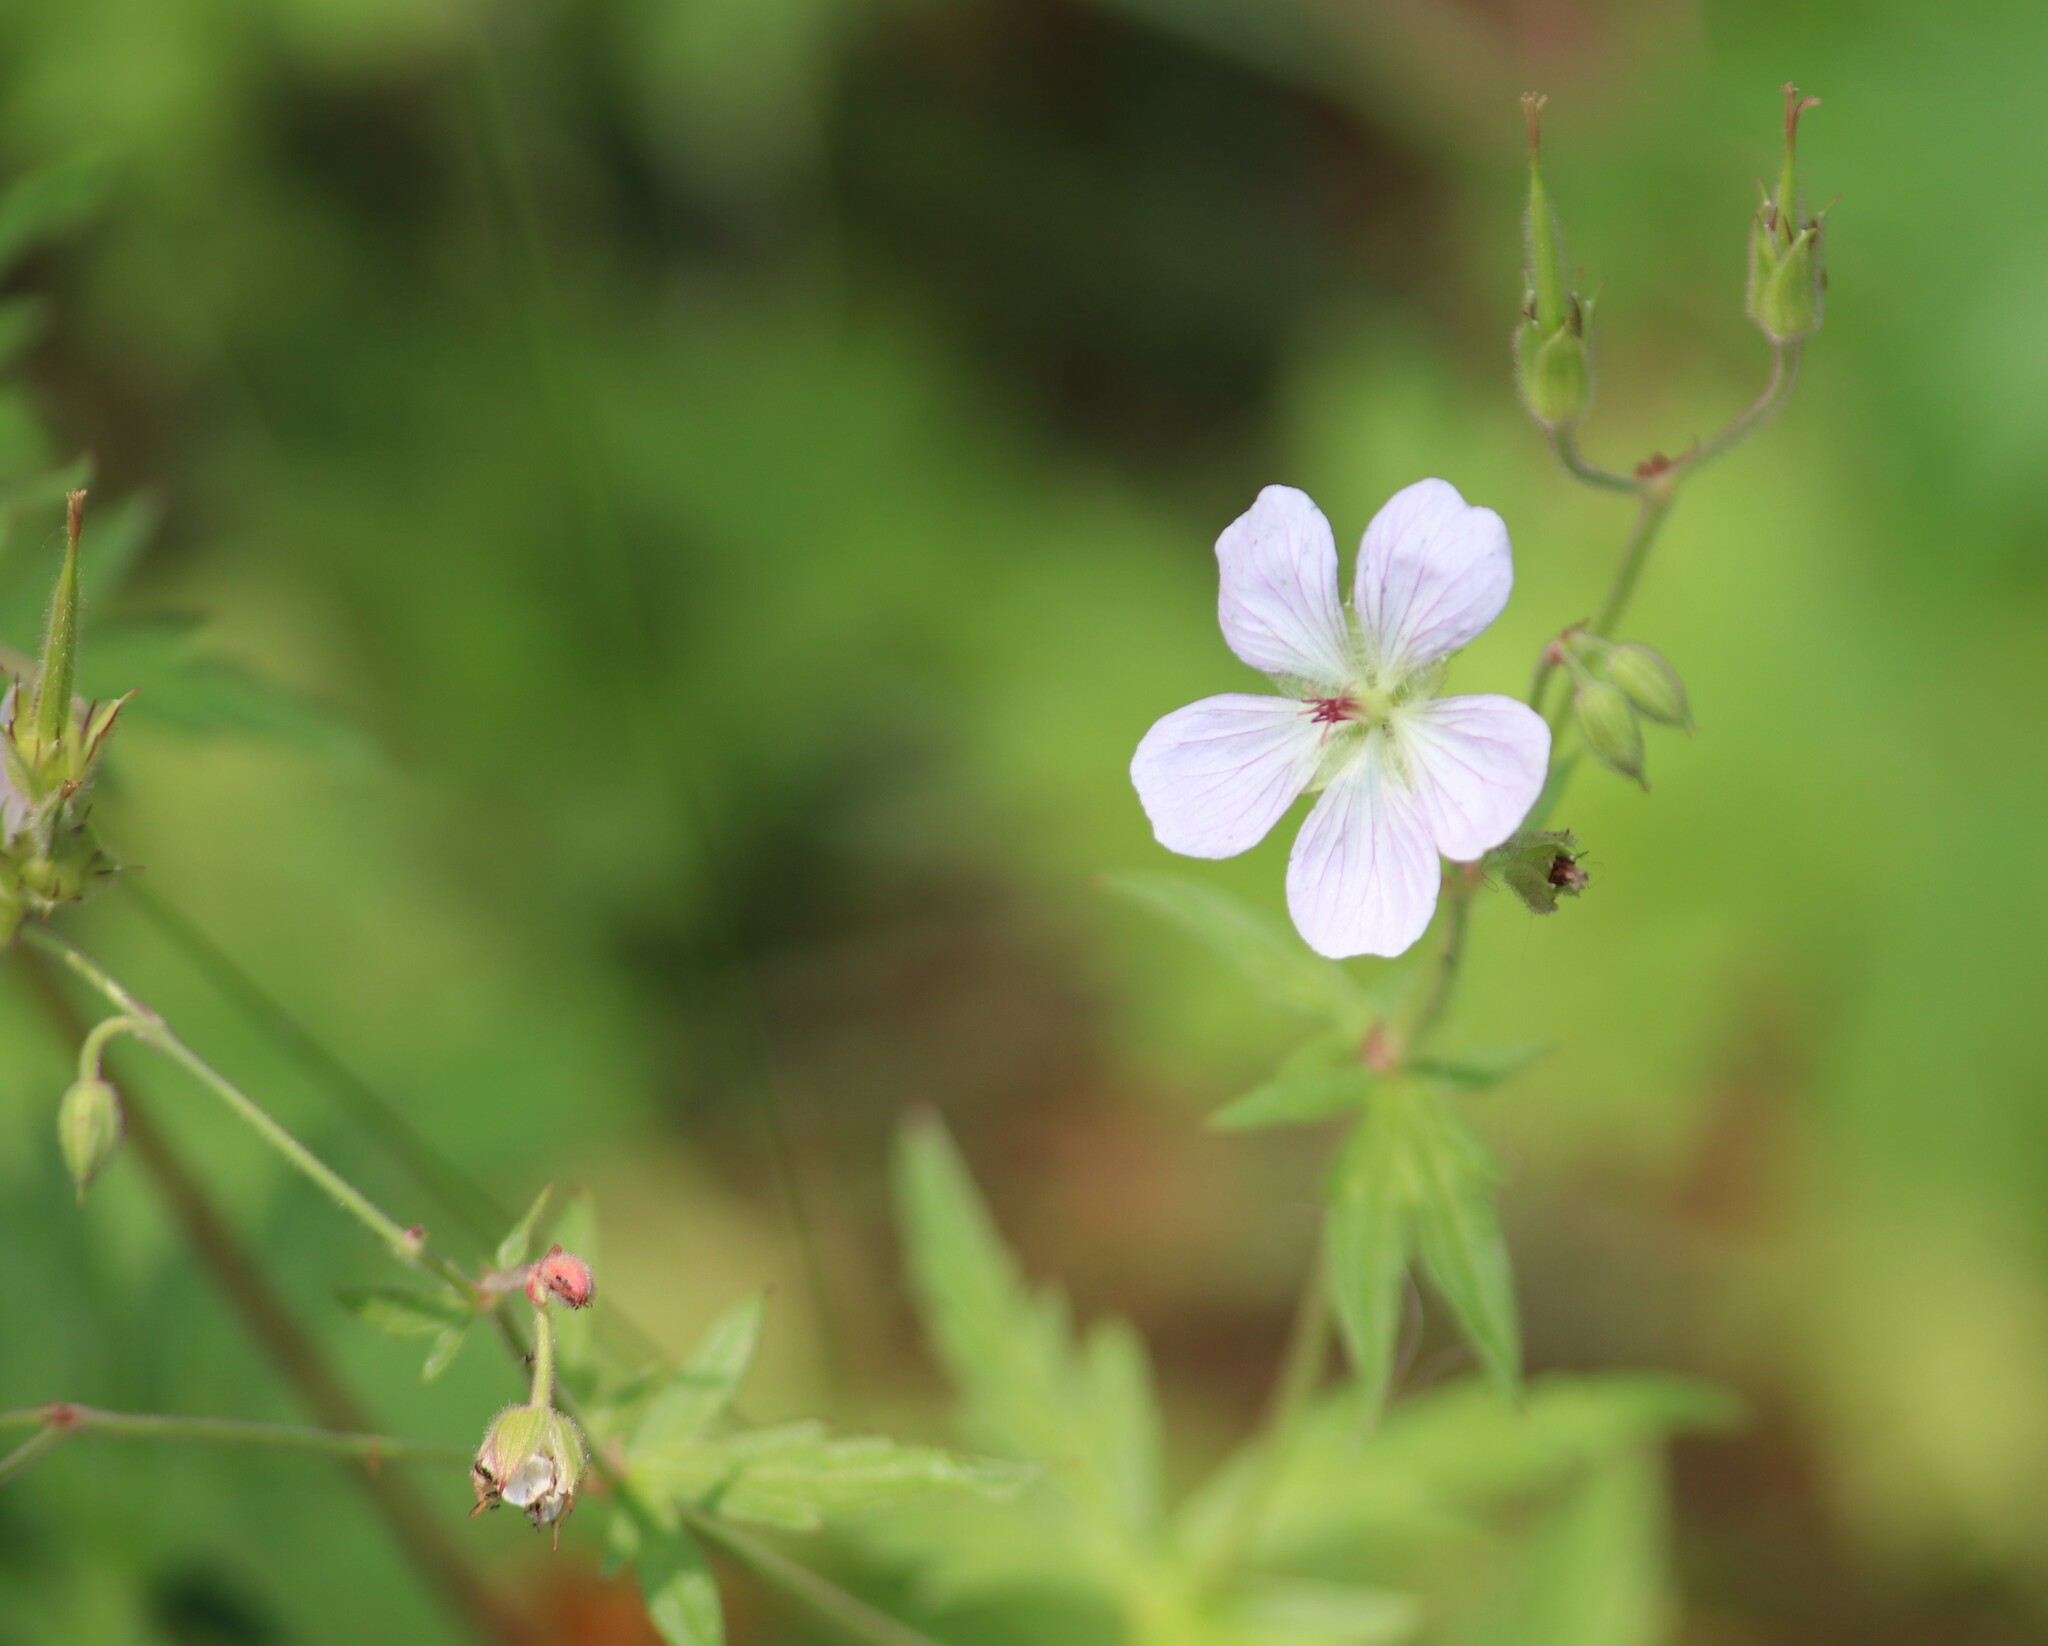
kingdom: Plantae
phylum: Tracheophyta
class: Magnoliopsida
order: Geraniales
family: Geraniaceae
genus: Geranium
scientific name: Geranium richardsonii
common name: Richardson's crane's-bill
